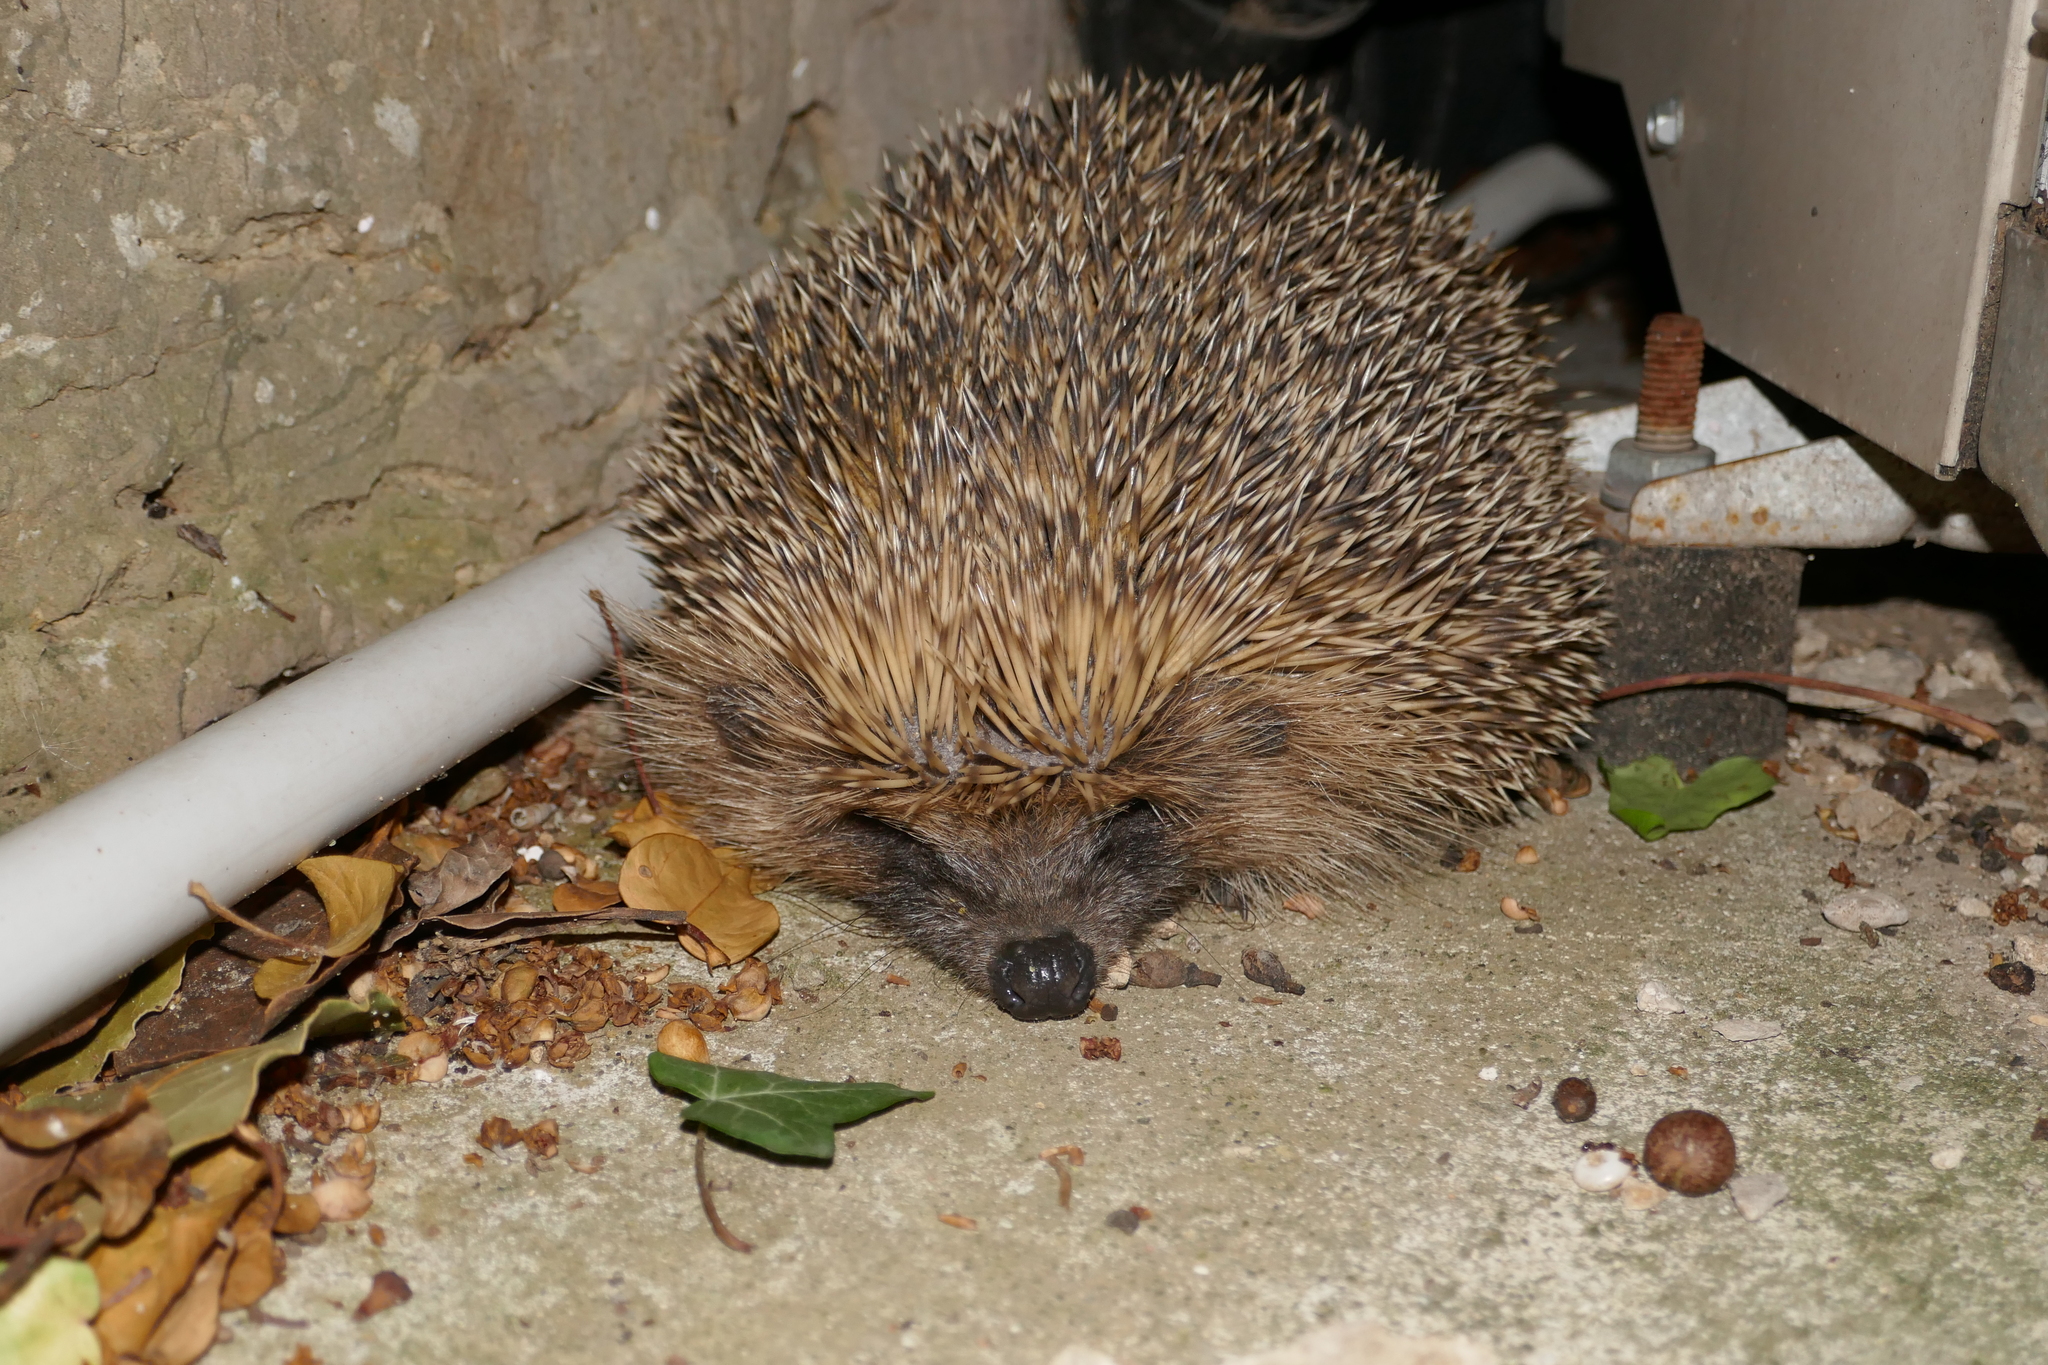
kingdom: Animalia
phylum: Chordata
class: Mammalia
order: Erinaceomorpha
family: Erinaceidae
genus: Erinaceus
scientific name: Erinaceus europaeus
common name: West european hedgehog
